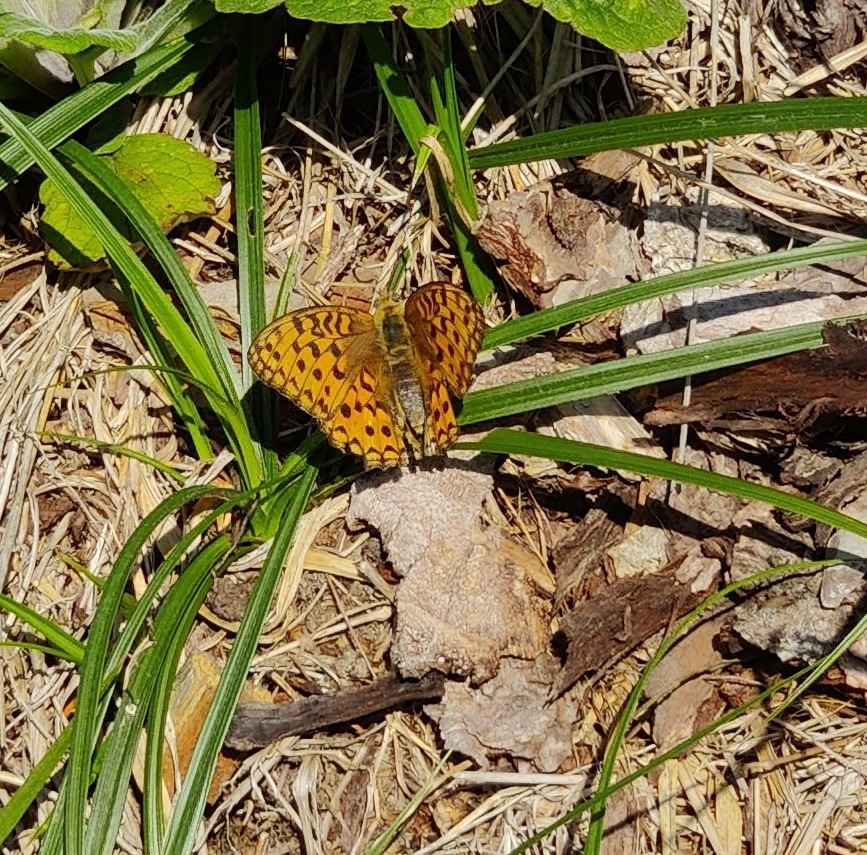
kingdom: Animalia
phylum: Arthropoda
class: Insecta
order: Lepidoptera
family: Nymphalidae
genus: Fabriciana
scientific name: Fabriciana adippe
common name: High brown fritillary
